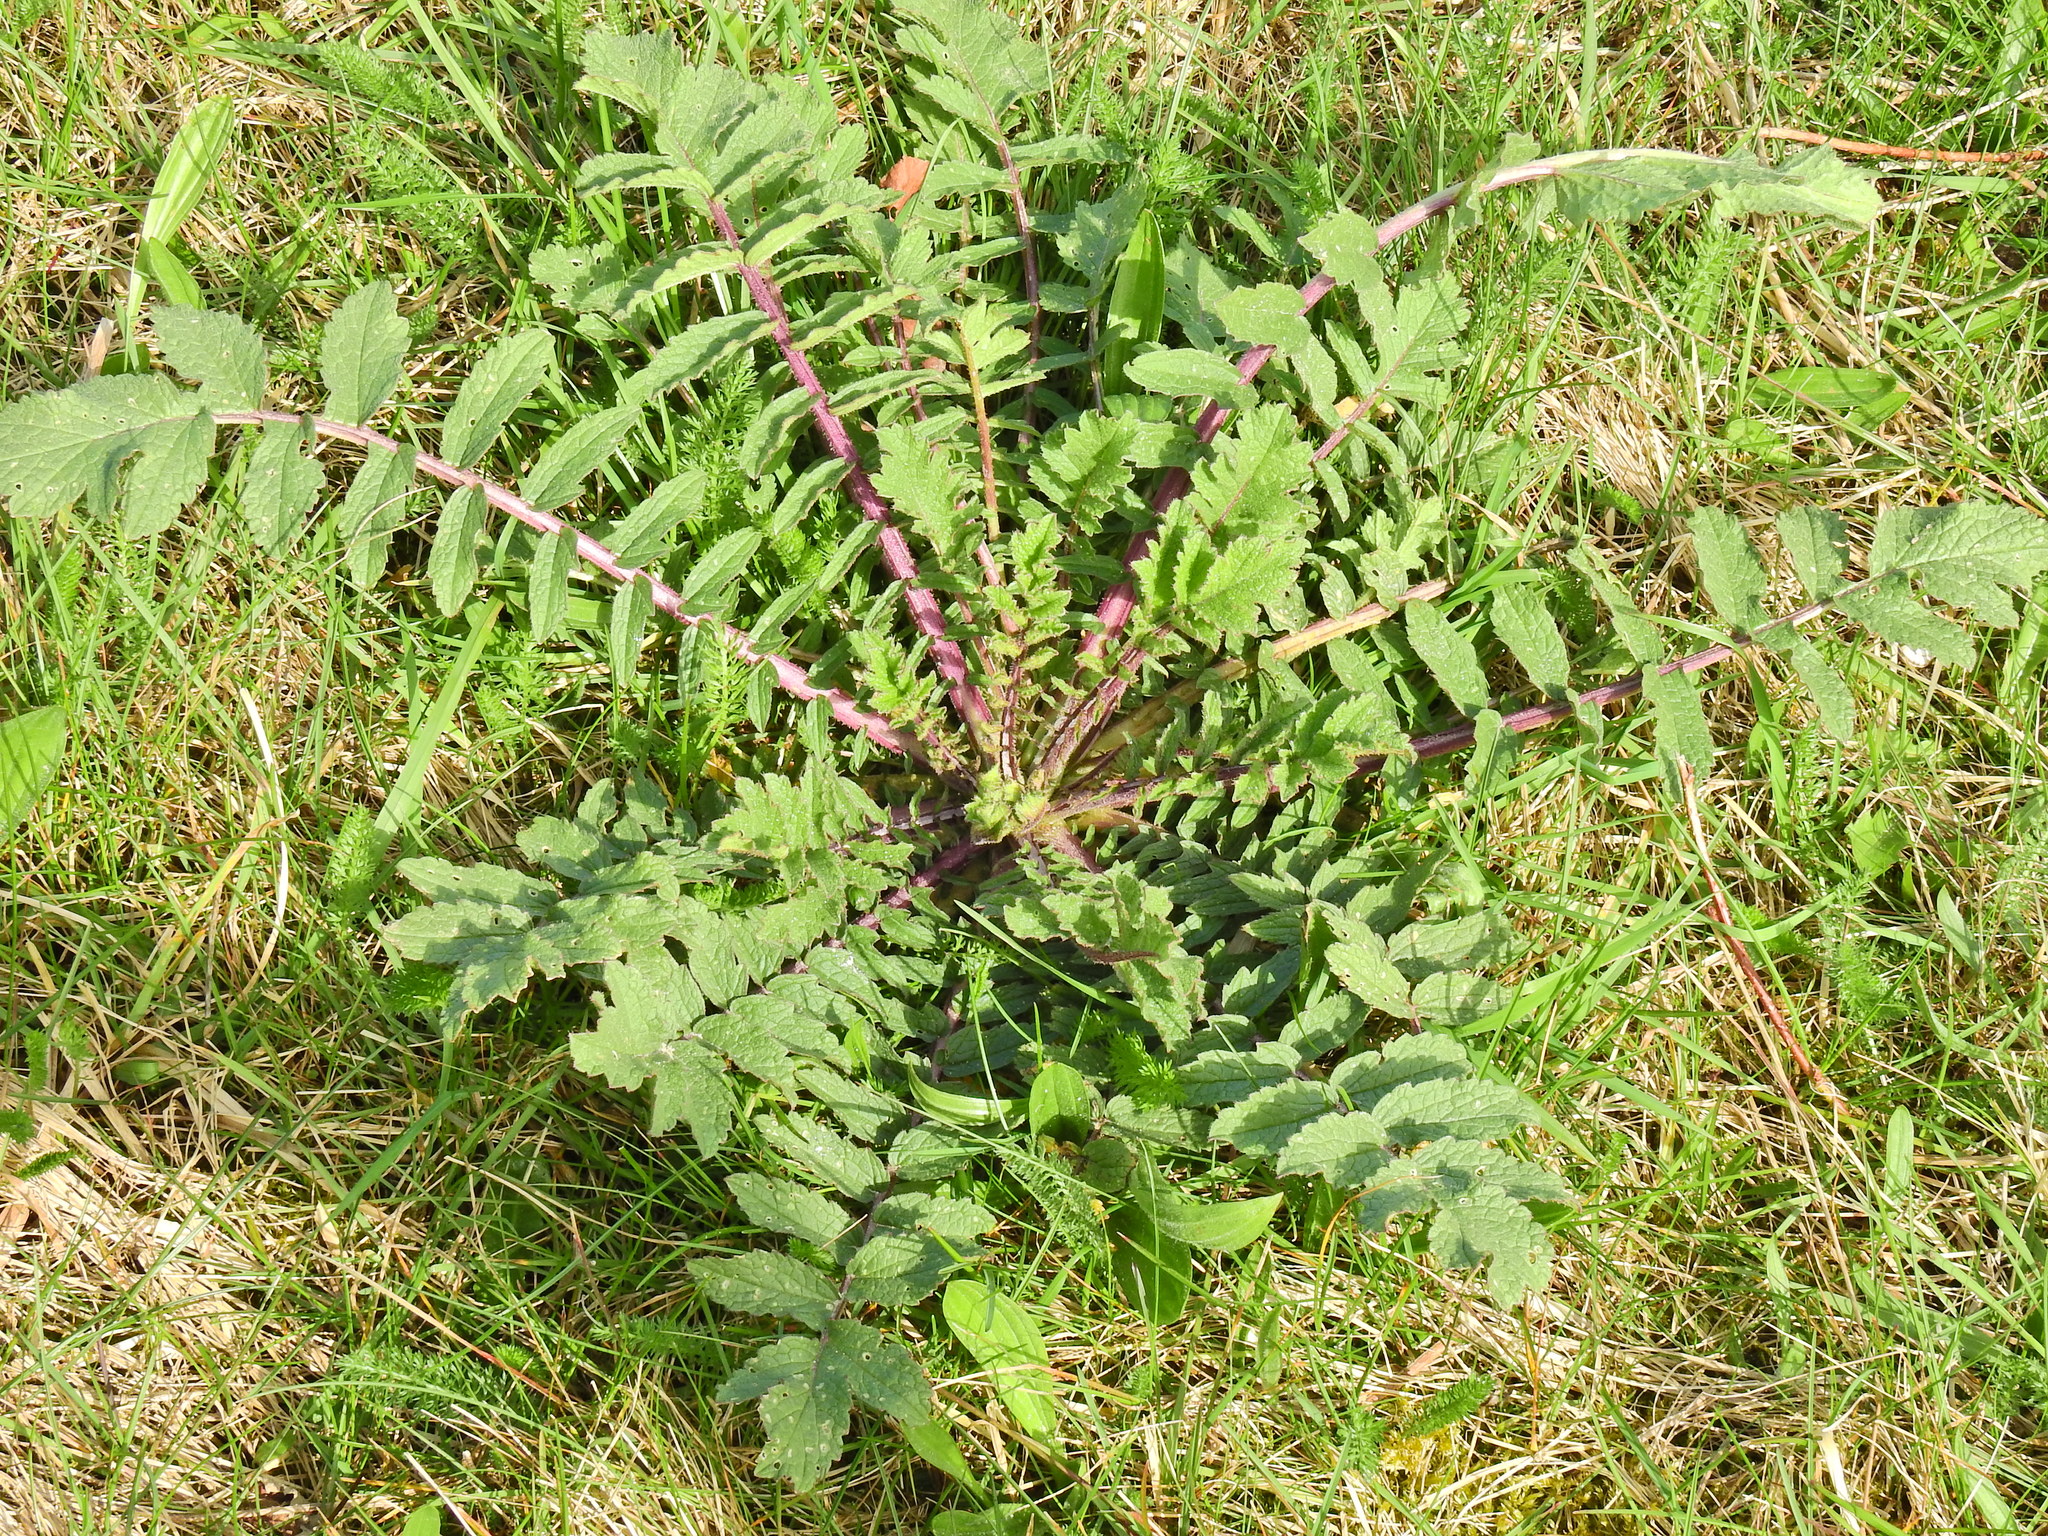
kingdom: Plantae
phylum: Tracheophyta
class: Magnoliopsida
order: Brassicales
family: Brassicaceae
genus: Raphanus
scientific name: Raphanus raphanistrum
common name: Wild radish
